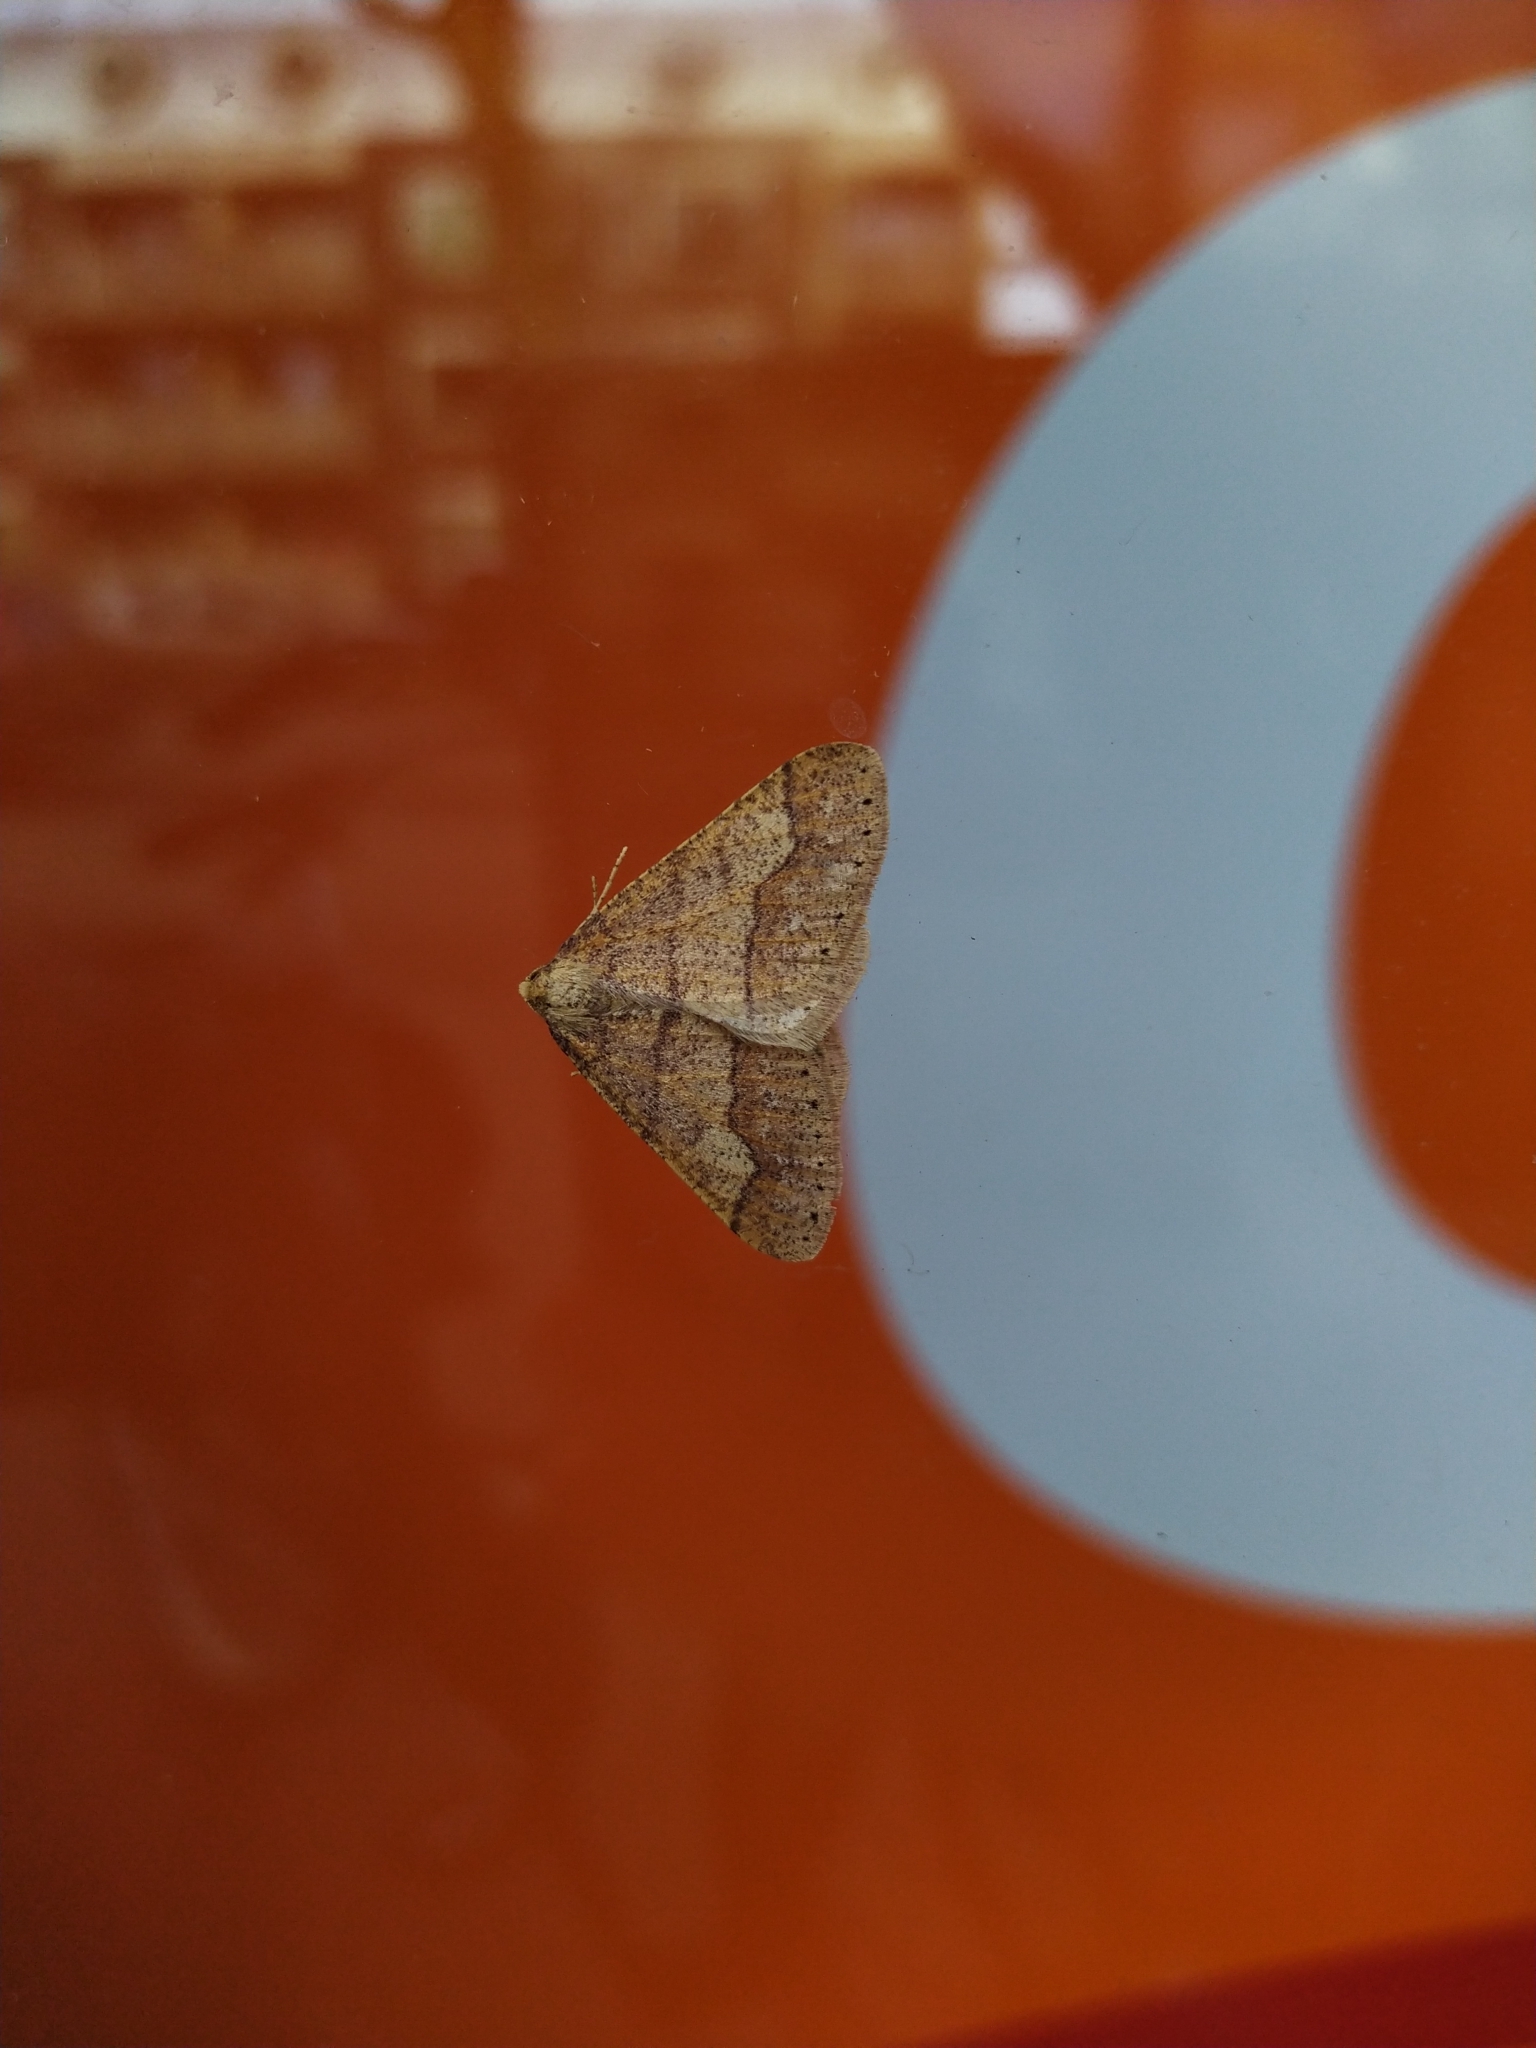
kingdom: Animalia
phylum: Arthropoda
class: Insecta
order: Lepidoptera
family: Geometridae
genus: Agriopis
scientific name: Agriopis marginaria
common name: Dotted border
